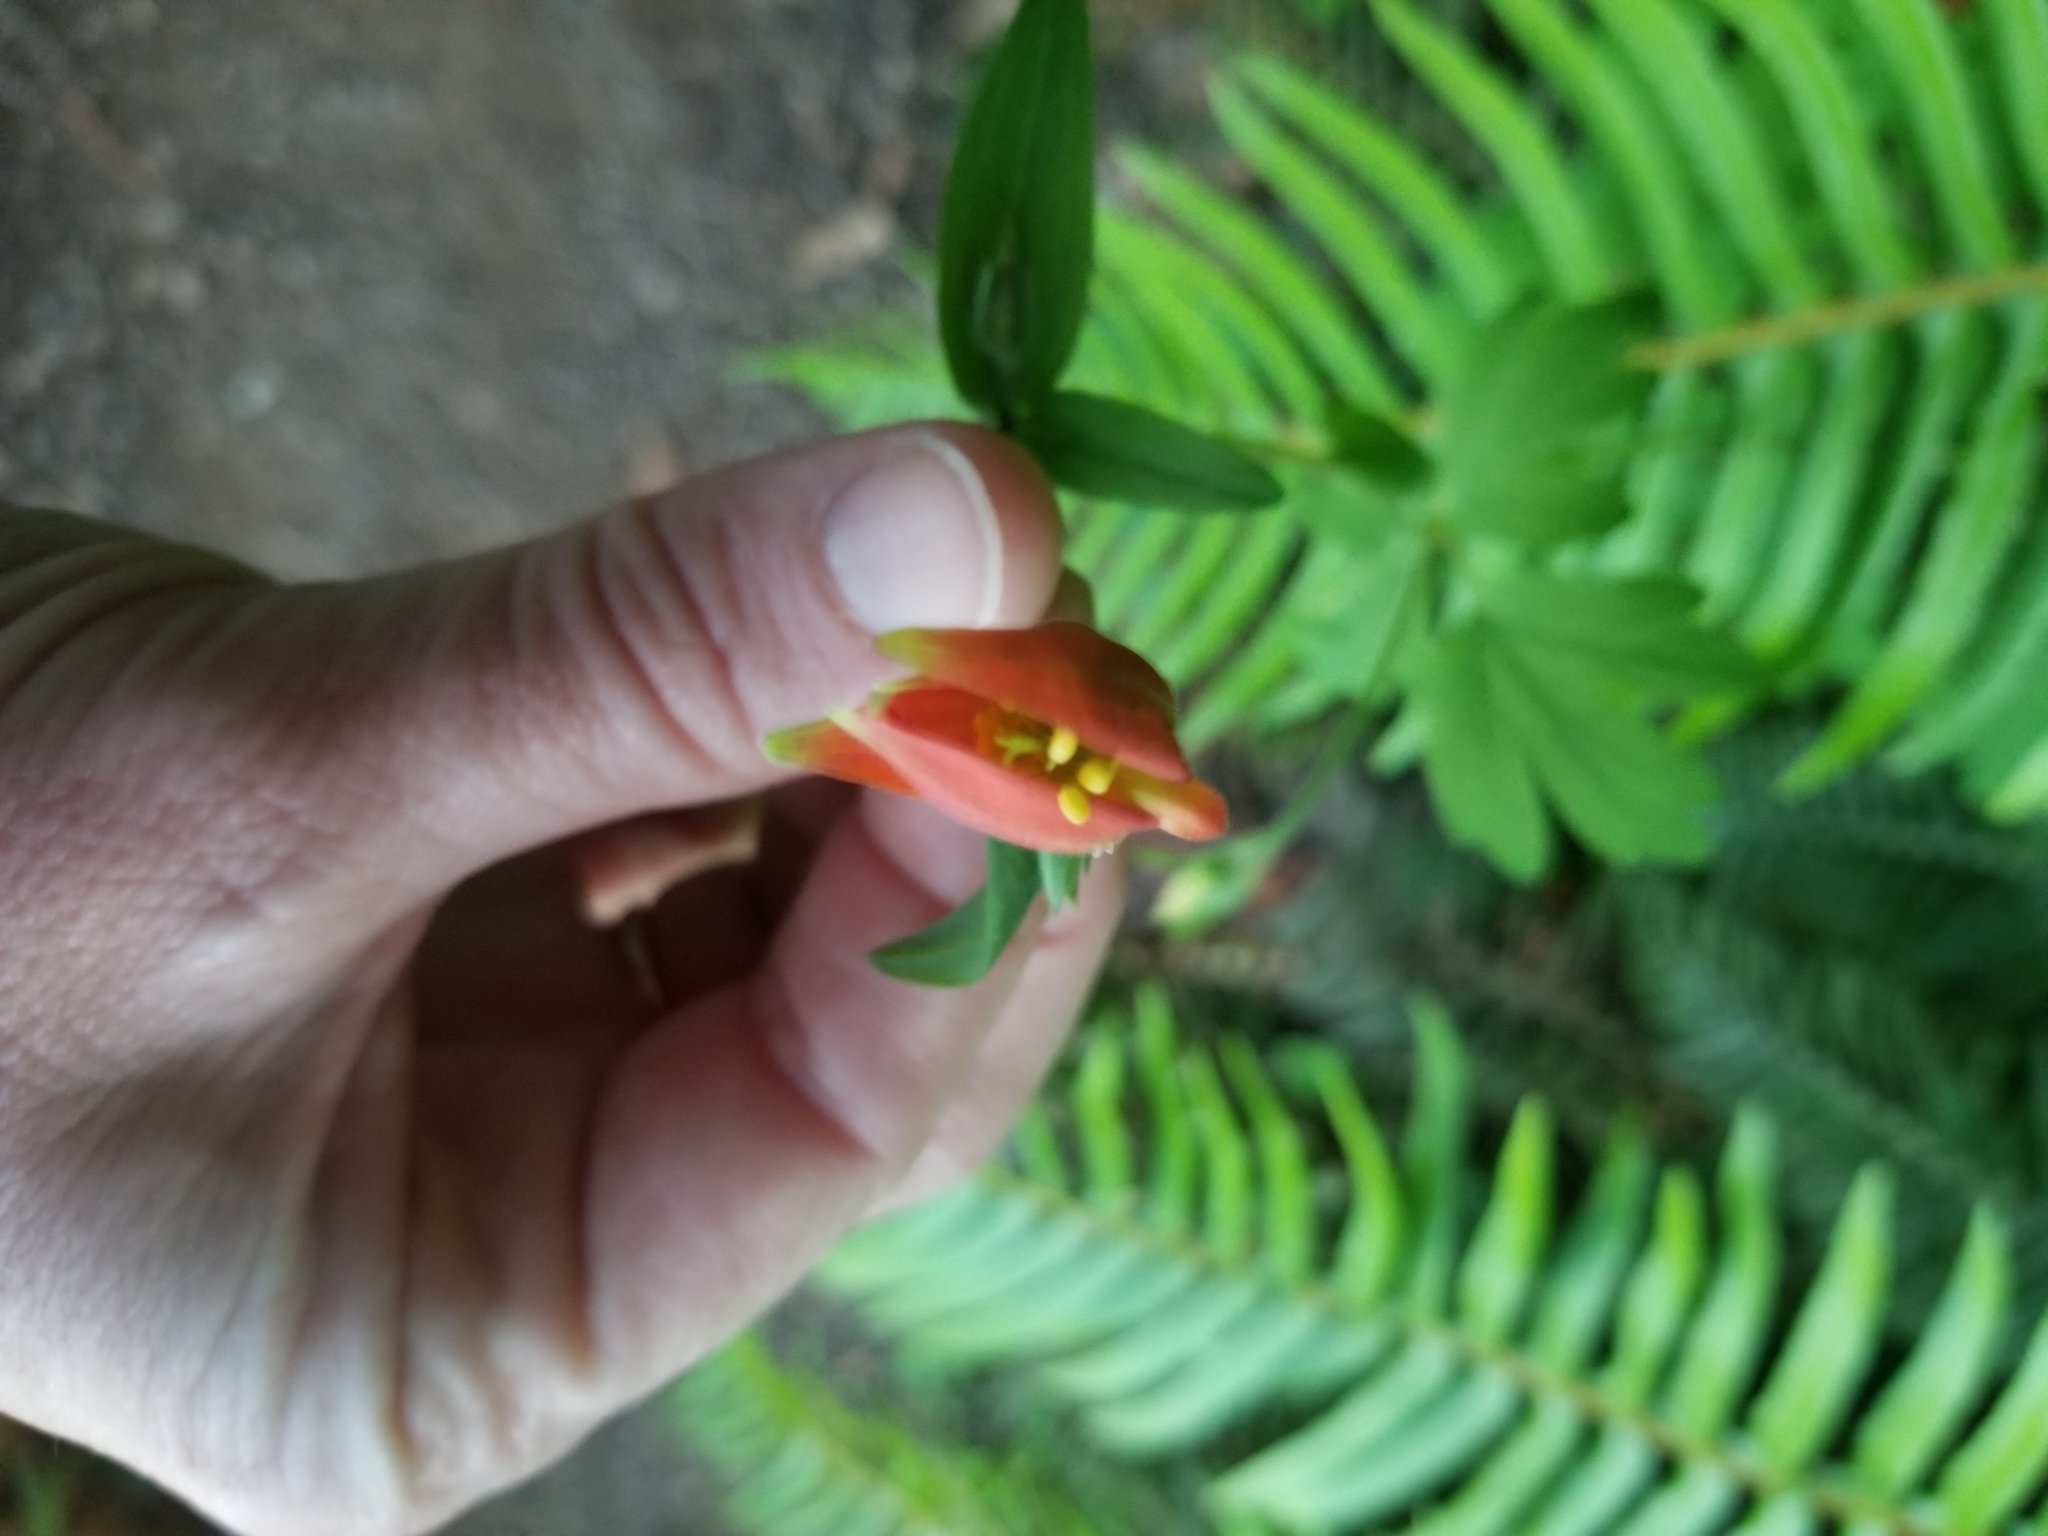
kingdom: Plantae
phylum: Tracheophyta
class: Magnoliopsida
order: Ranunculales
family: Ranunculaceae
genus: Aquilegia
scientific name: Aquilegia formosa
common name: Sitka columbine
